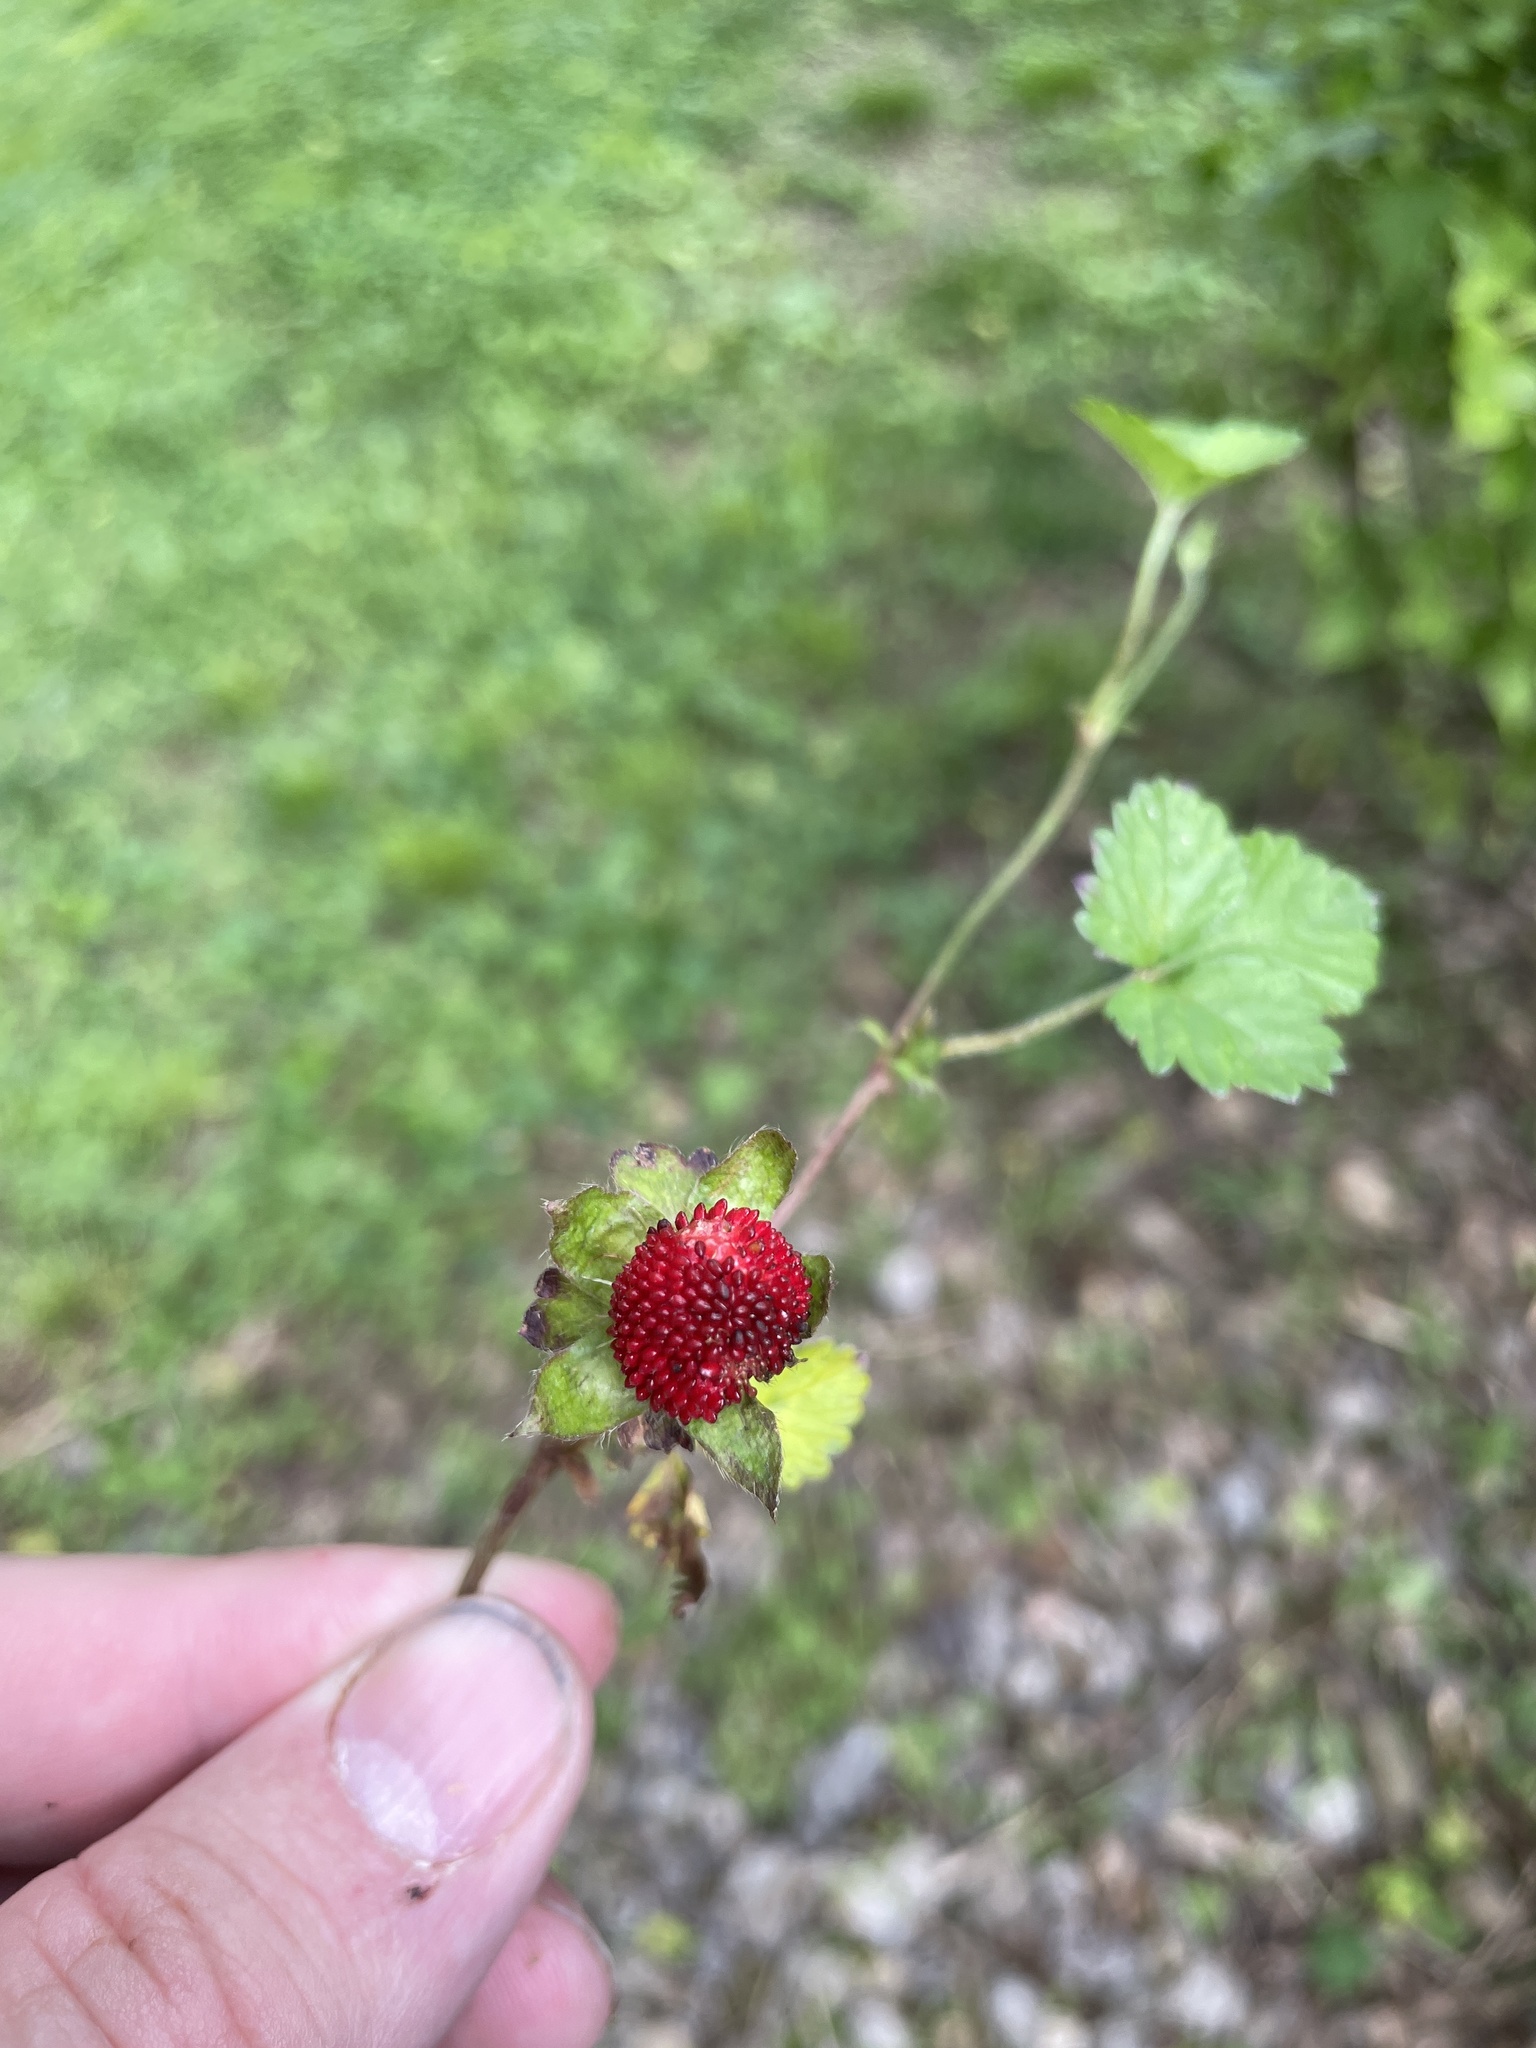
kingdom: Plantae
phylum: Tracheophyta
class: Magnoliopsida
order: Rosales
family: Rosaceae
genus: Potentilla
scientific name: Potentilla indica
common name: Yellow-flowered strawberry
